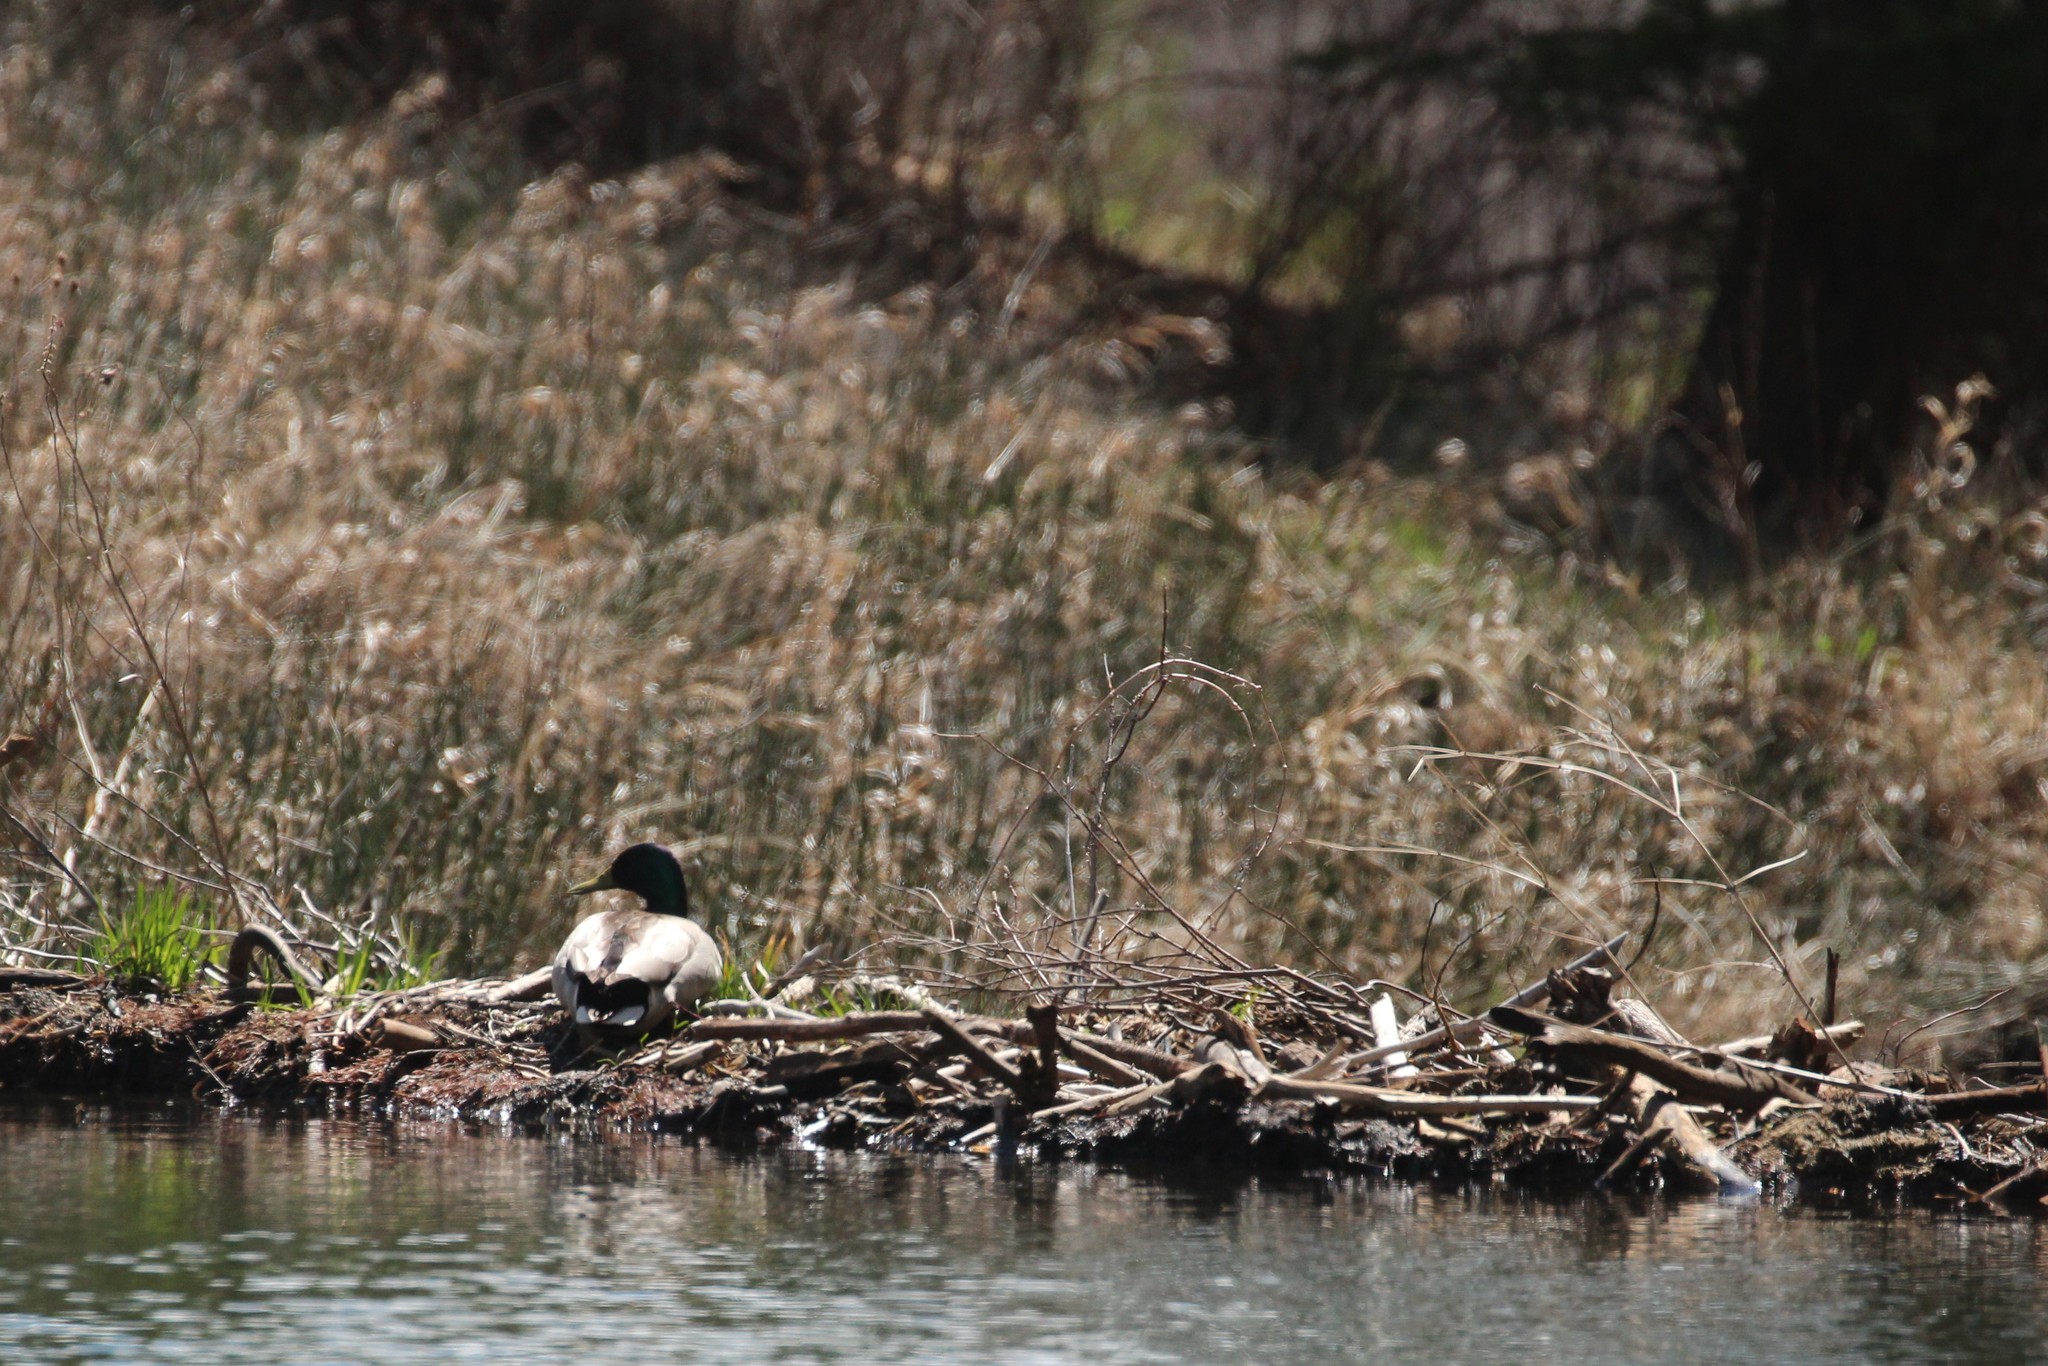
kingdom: Animalia
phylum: Chordata
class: Aves
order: Anseriformes
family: Anatidae
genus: Anas
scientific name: Anas platyrhynchos
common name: Mallard
